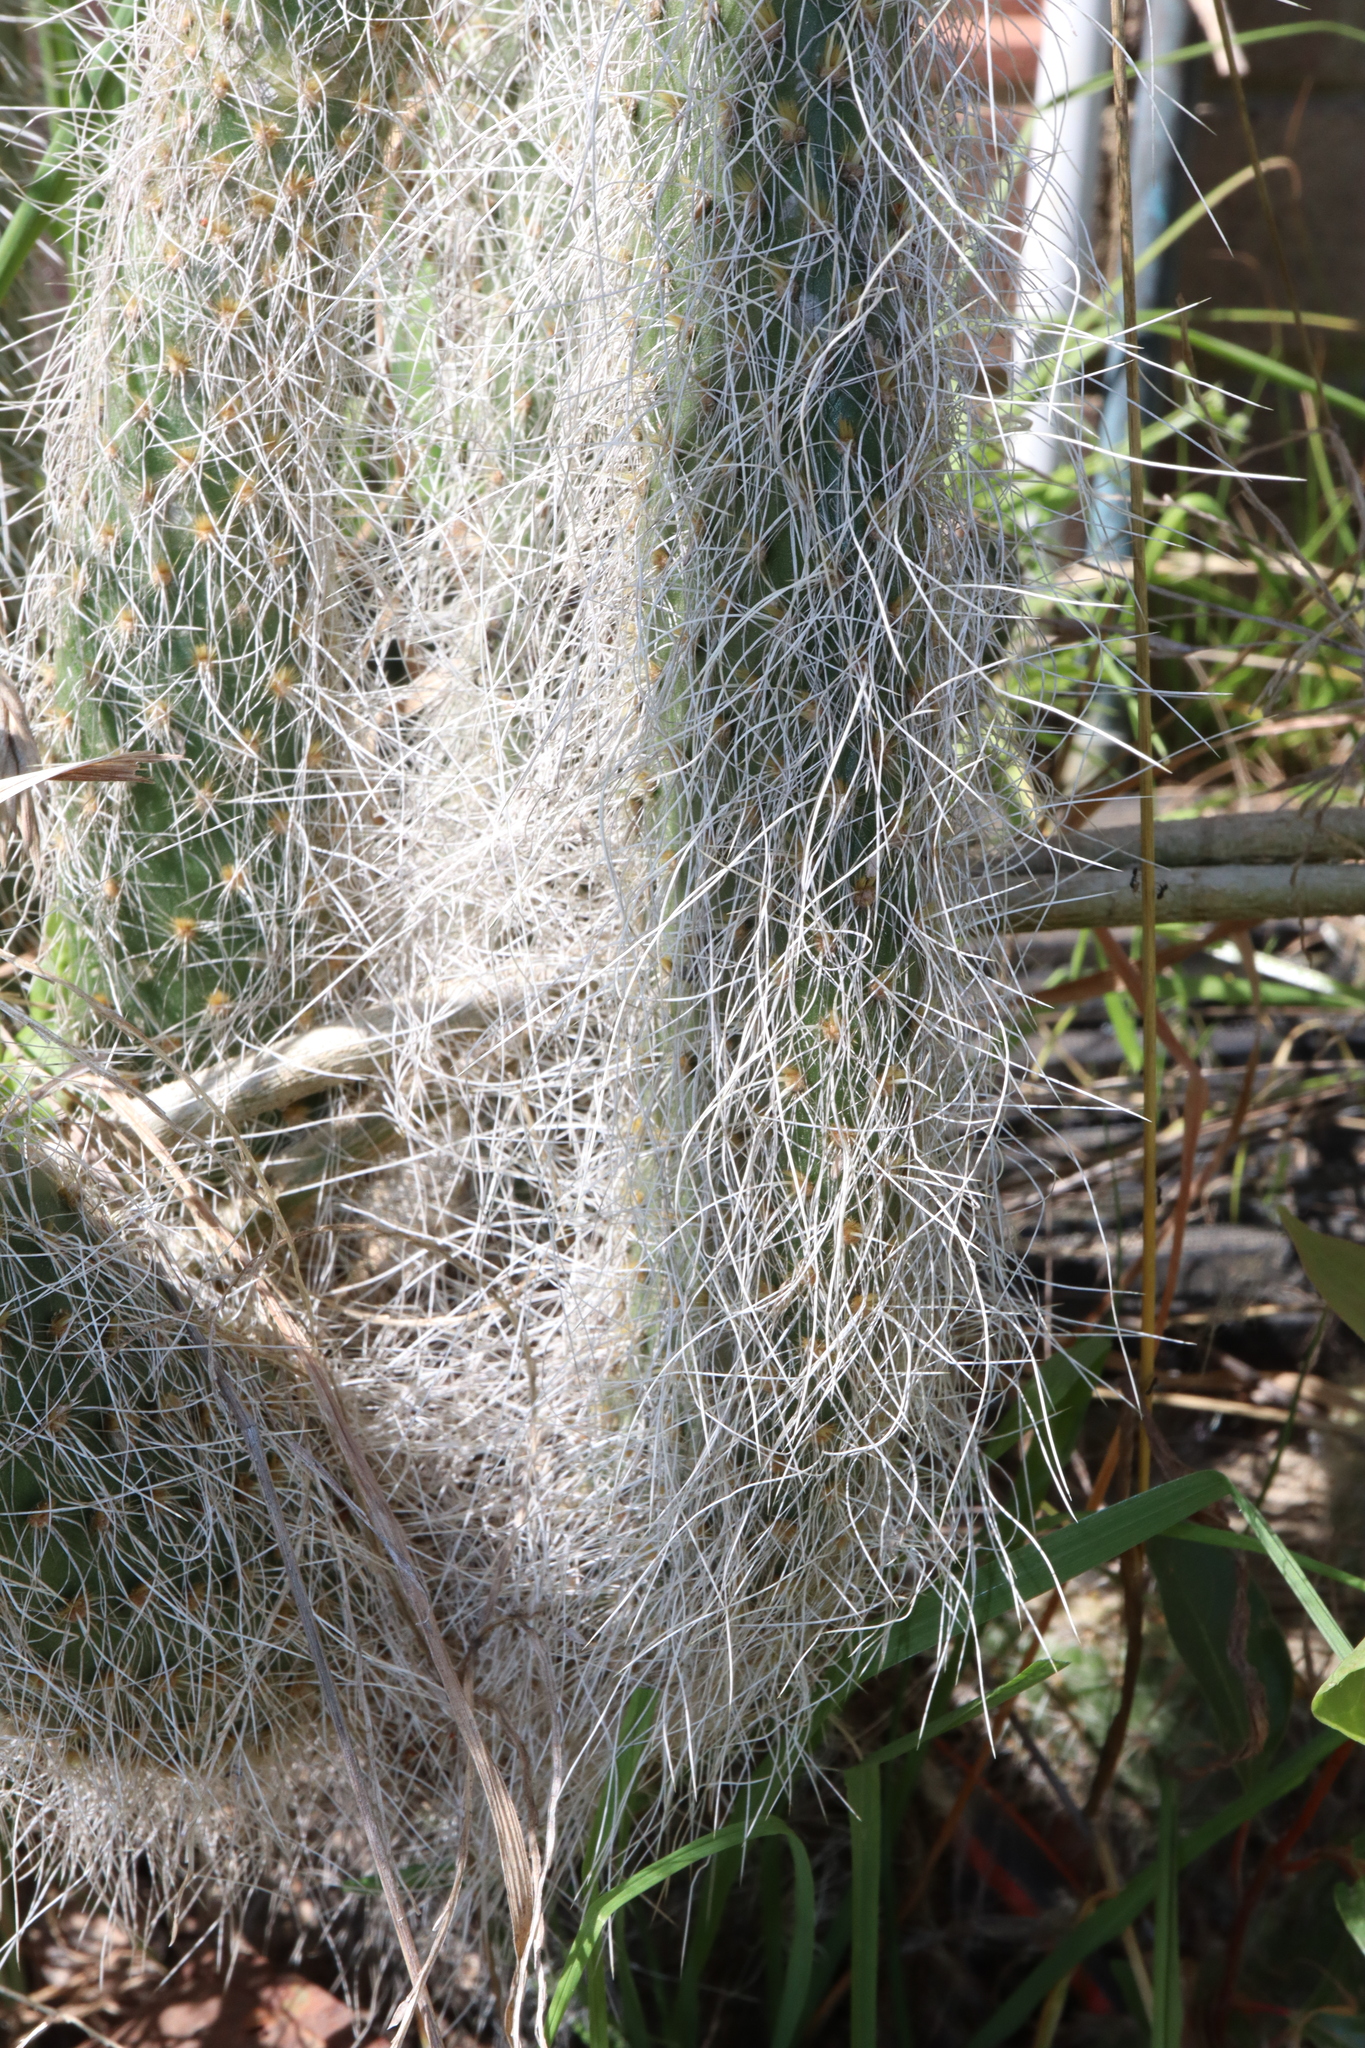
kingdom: Plantae
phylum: Tracheophyta
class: Magnoliopsida
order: Caryophyllales
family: Cactaceae
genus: Opuntia
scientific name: Opuntia leucotricha
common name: Arborescent pricklypear
